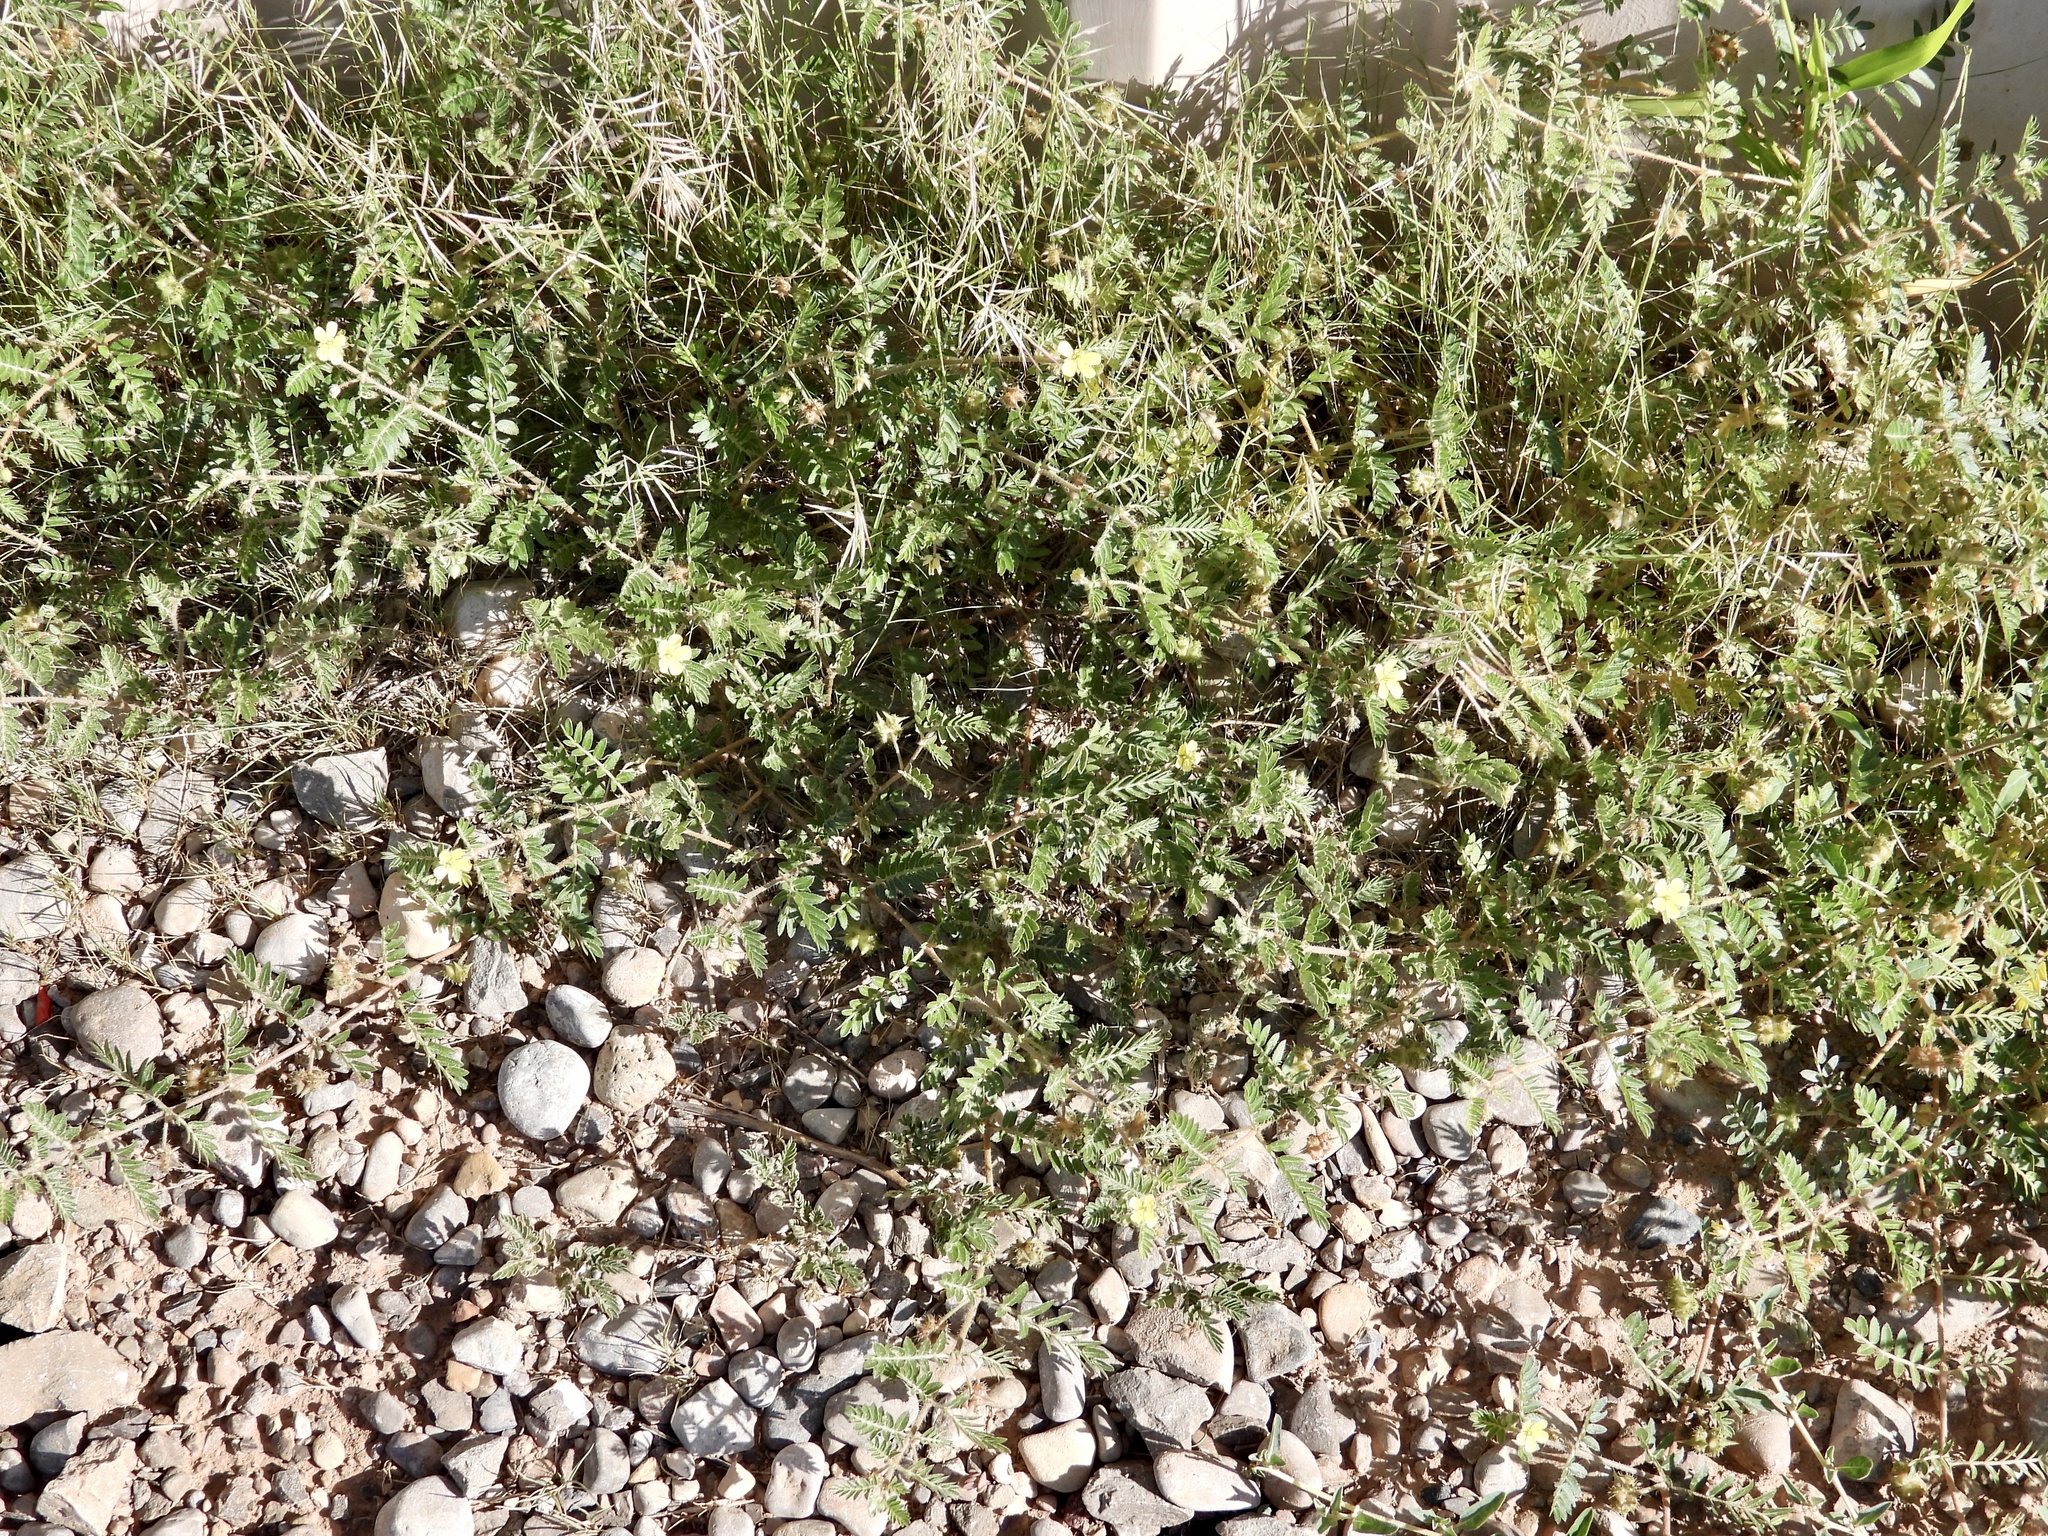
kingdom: Plantae
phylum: Tracheophyta
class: Magnoliopsida
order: Zygophyllales
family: Zygophyllaceae
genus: Tribulus
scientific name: Tribulus terrestris
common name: Puncturevine
